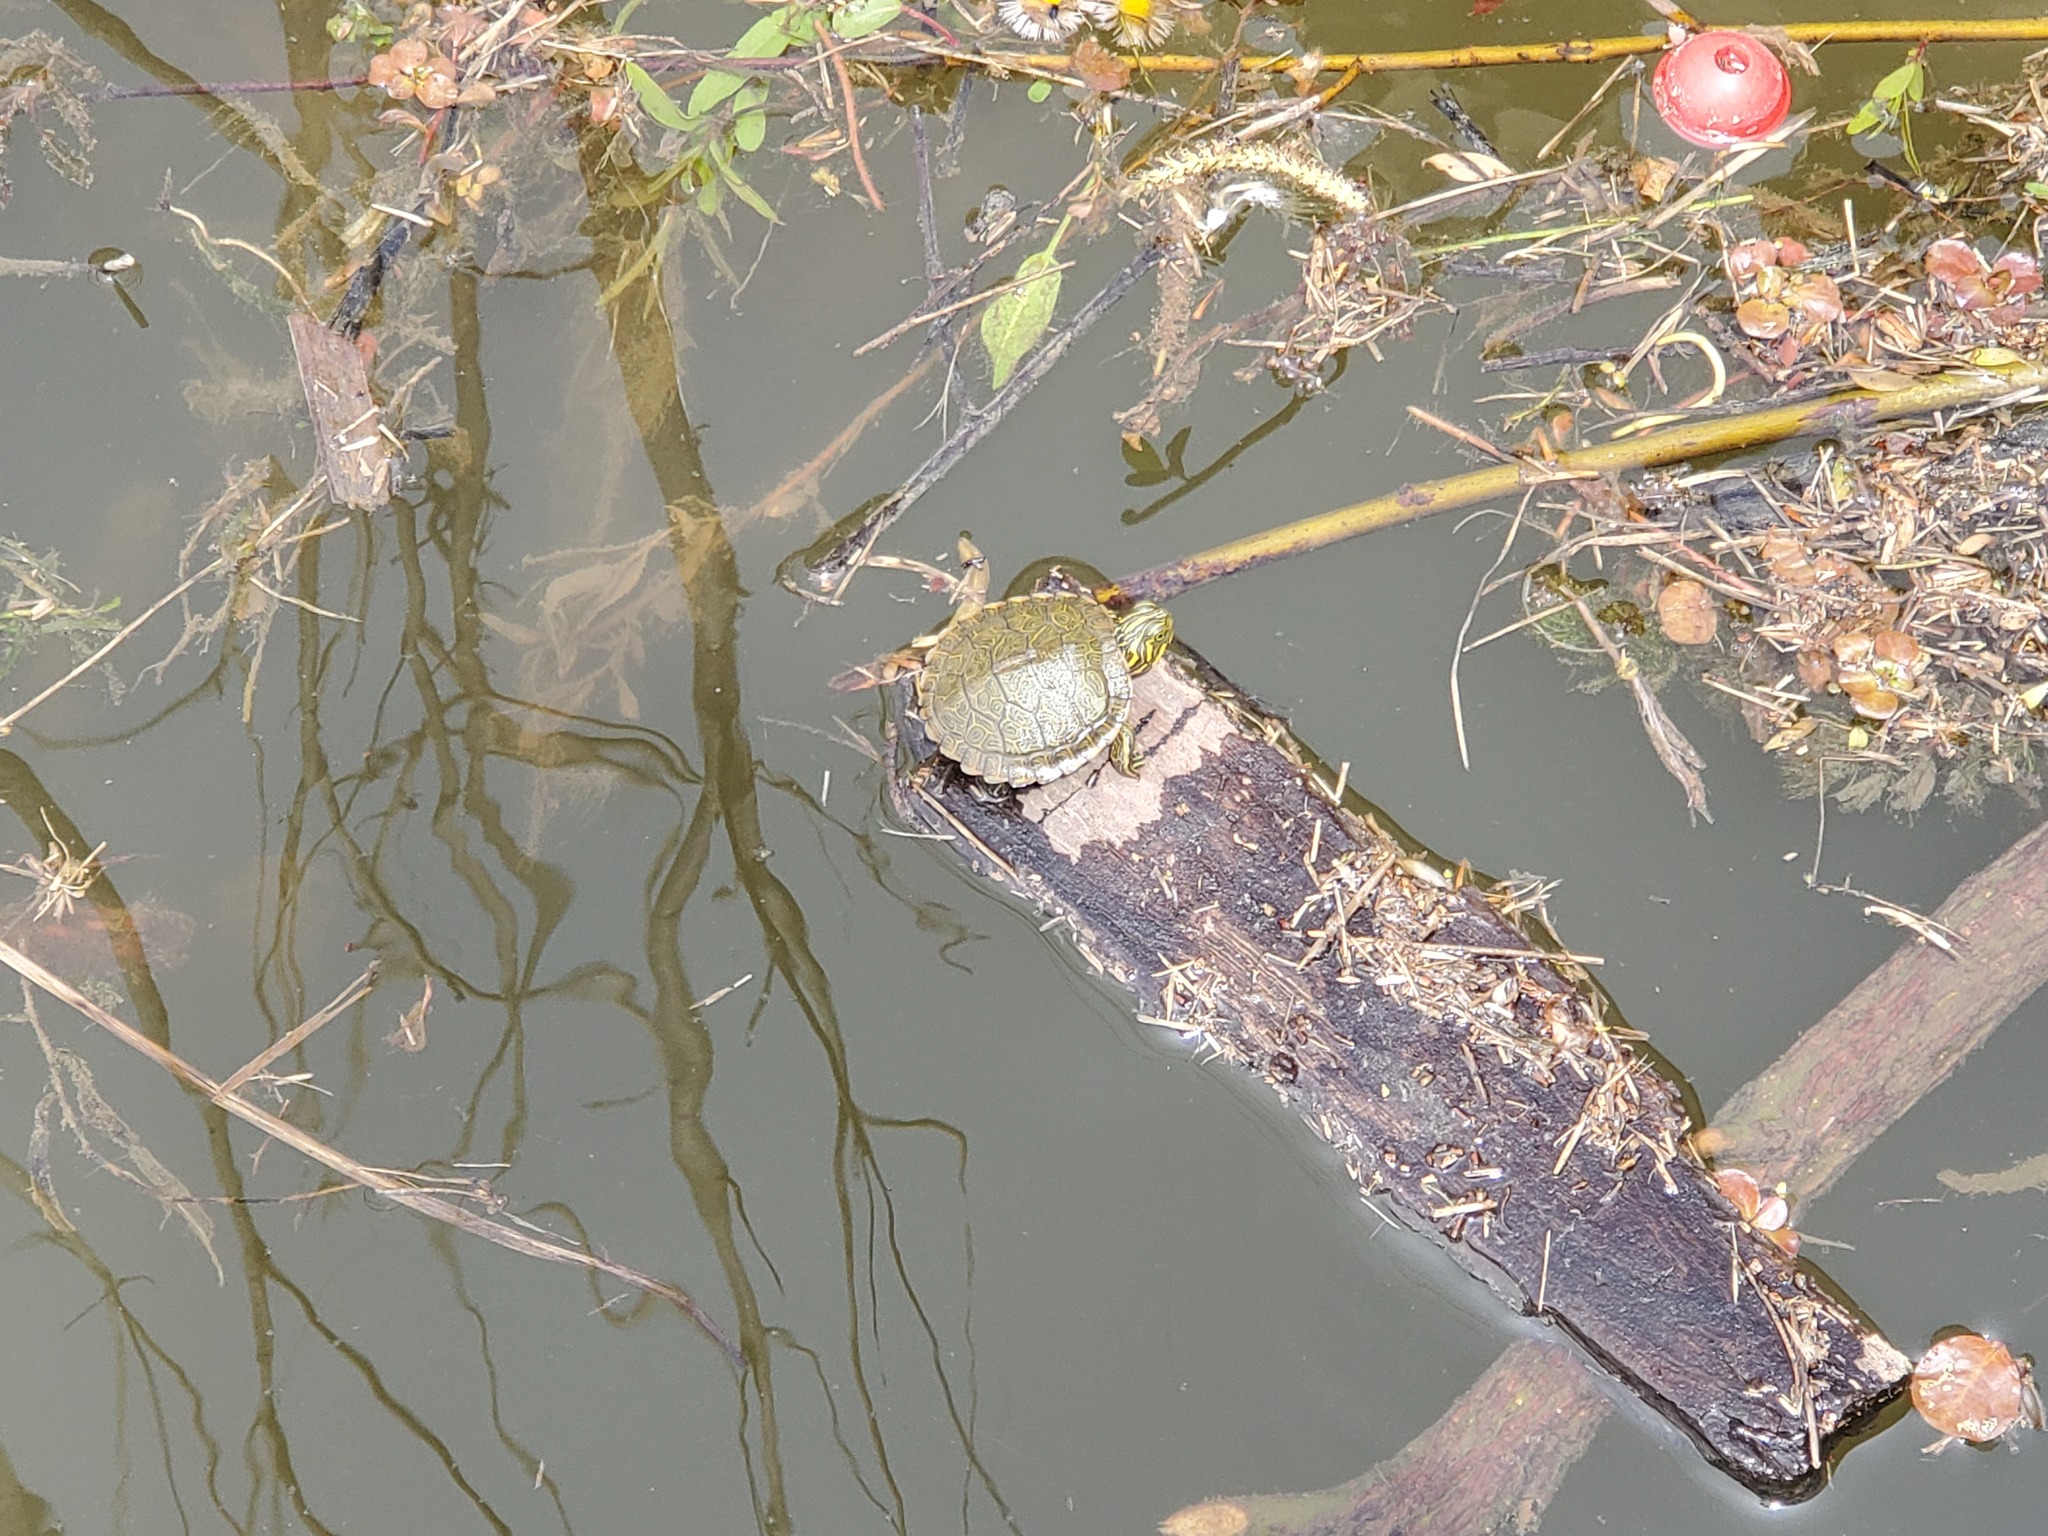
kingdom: Animalia
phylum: Chordata
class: Testudines
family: Emydidae
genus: Pseudemys
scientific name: Pseudemys concinna
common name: Eastern river cooter
